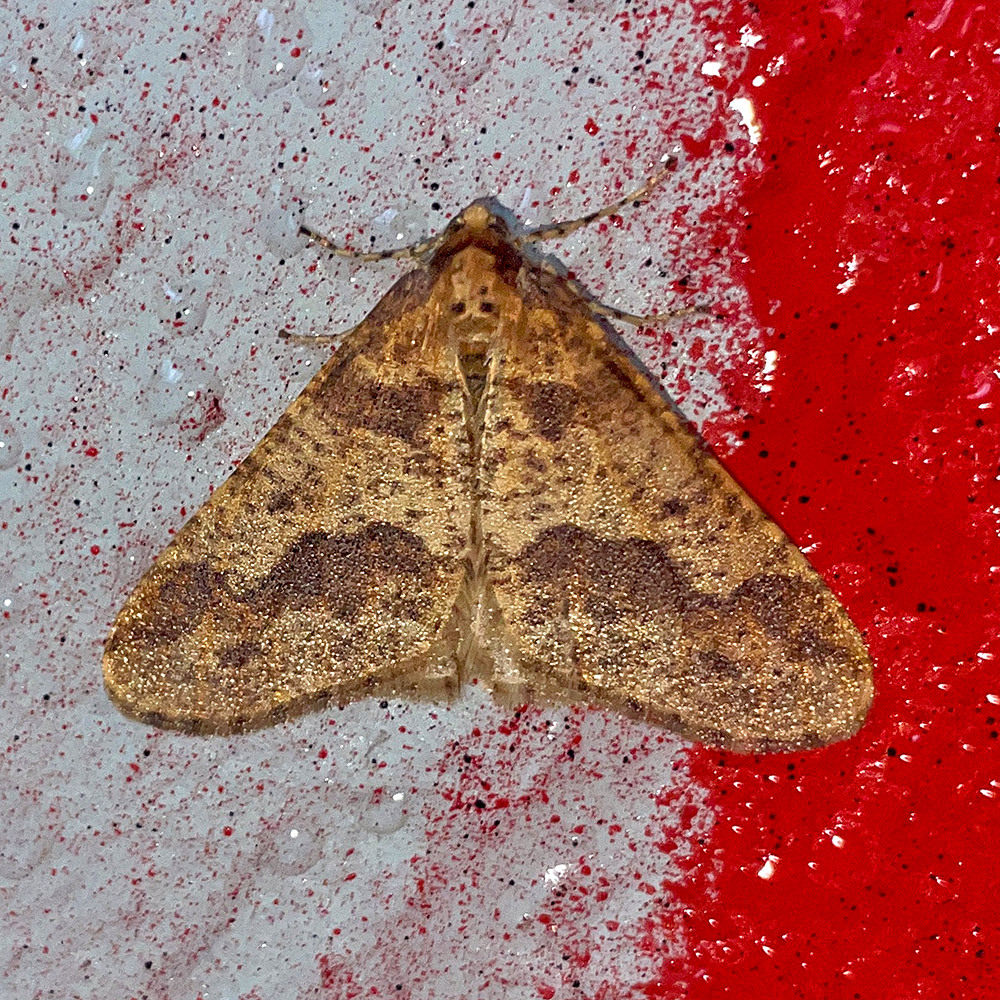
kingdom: Animalia
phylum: Arthropoda
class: Insecta
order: Lepidoptera
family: Geometridae
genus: Erannis
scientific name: Erannis defoliaria
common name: Mottled umber
